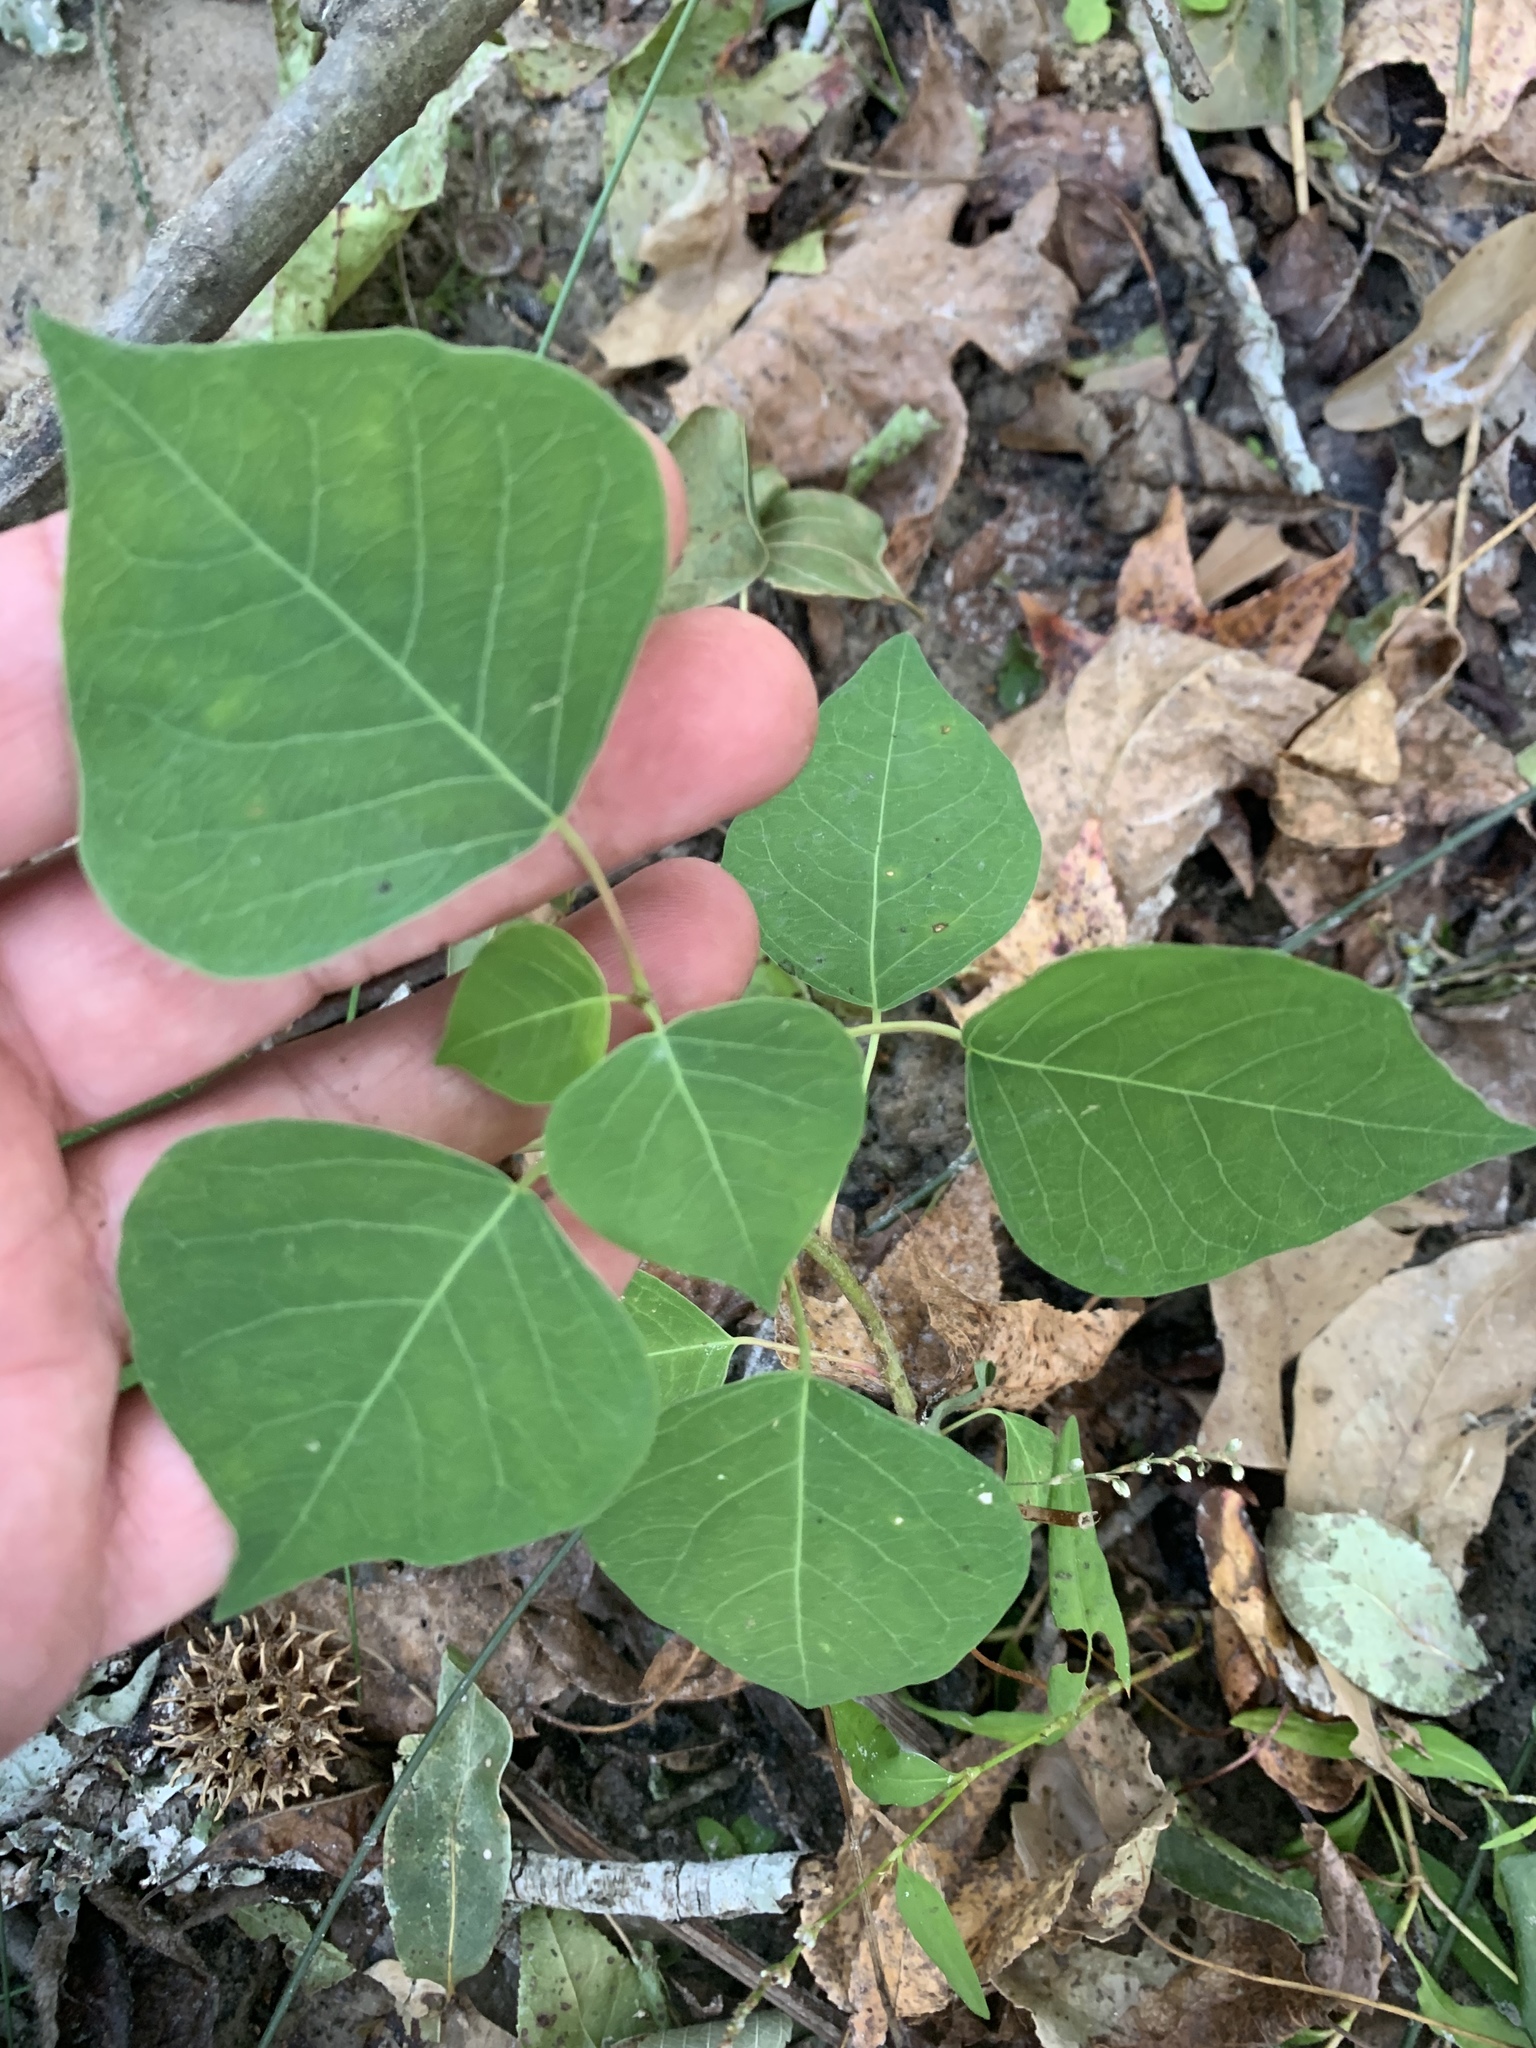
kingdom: Plantae
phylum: Tracheophyta
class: Magnoliopsida
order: Malpighiales
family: Euphorbiaceae
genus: Triadica
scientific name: Triadica sebifera
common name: Chinese tallow
